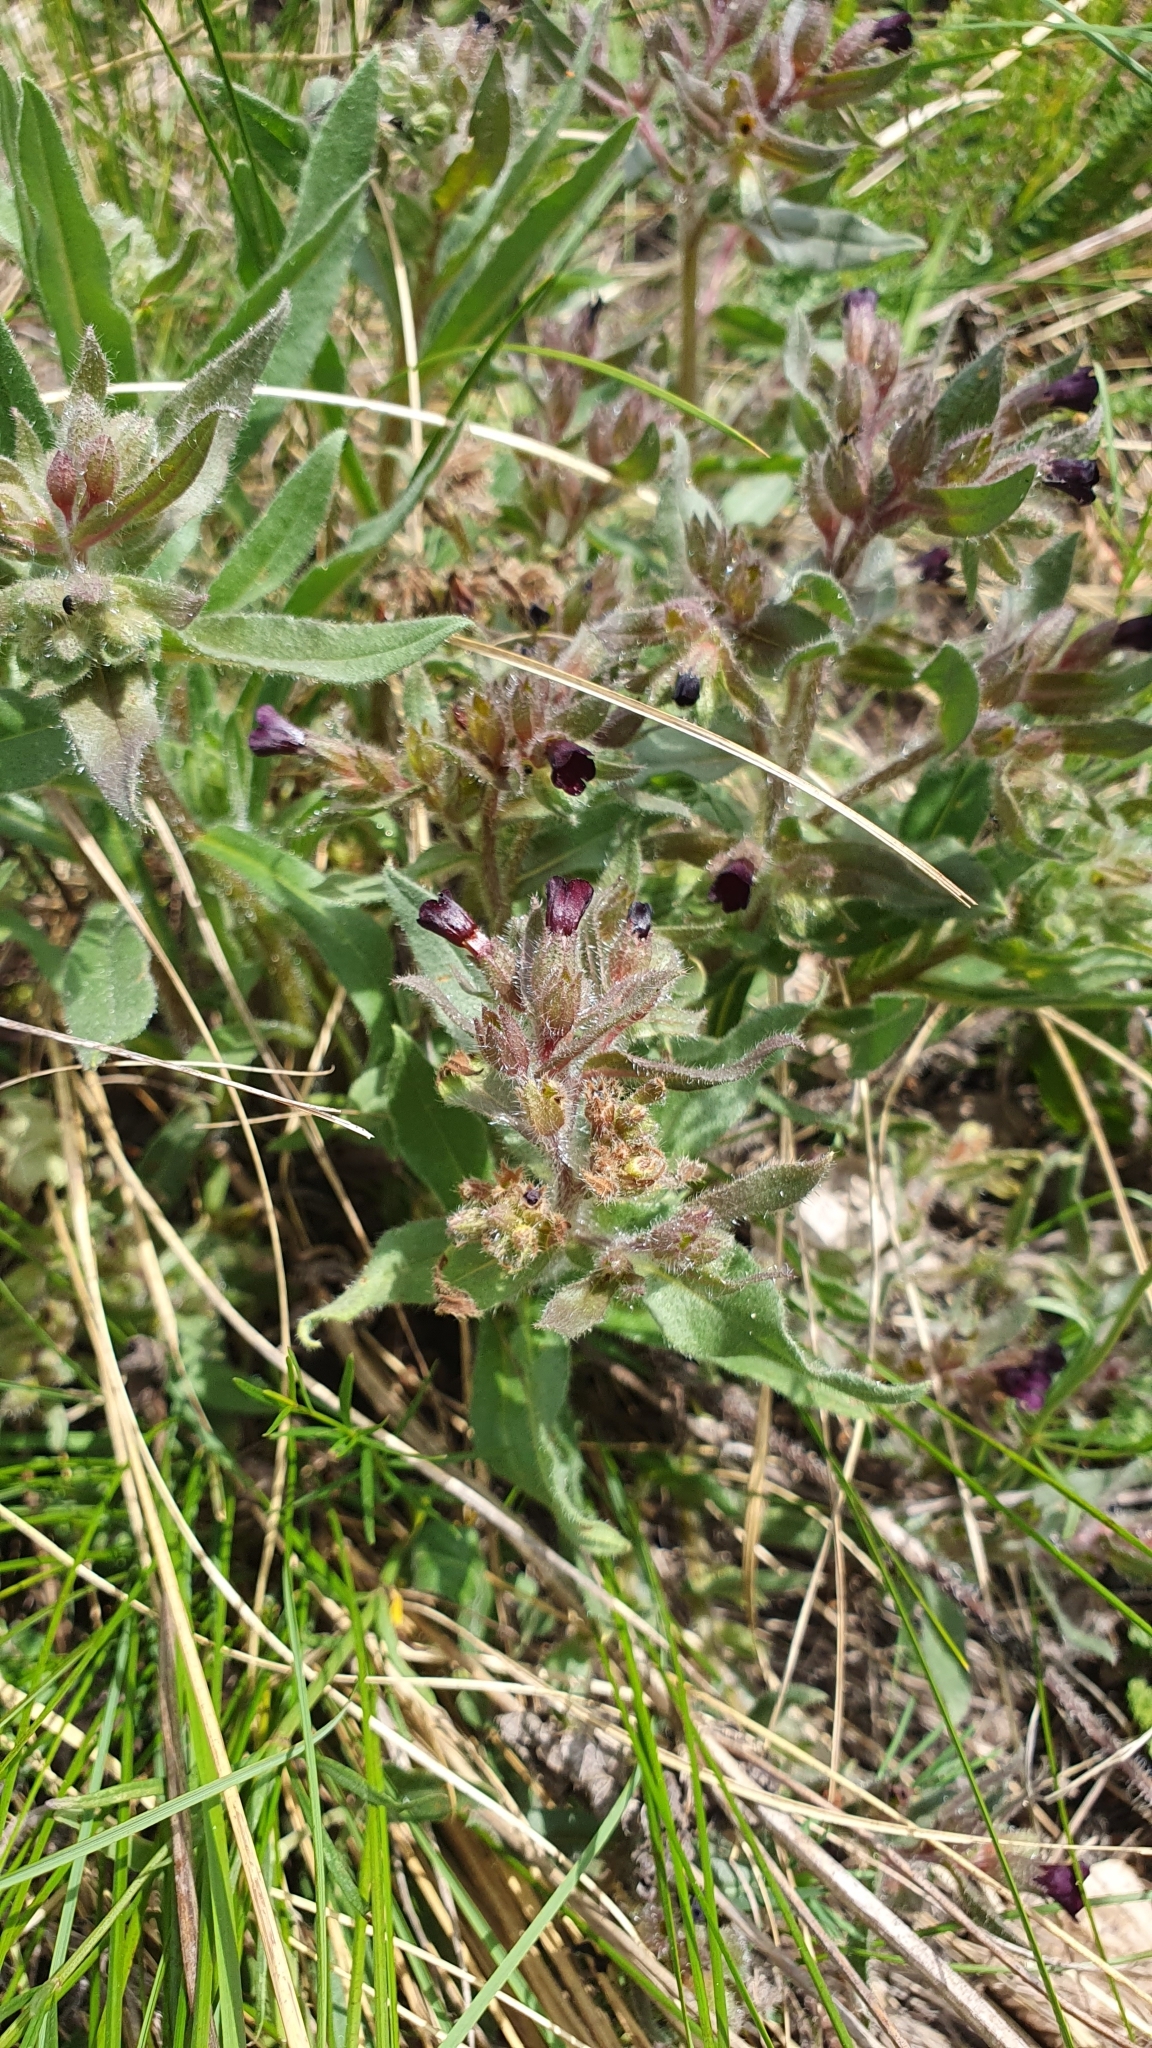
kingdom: Plantae
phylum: Tracheophyta
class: Magnoliopsida
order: Boraginales
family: Boraginaceae
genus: Nonea
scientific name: Nonea pulla
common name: Brown nonea
